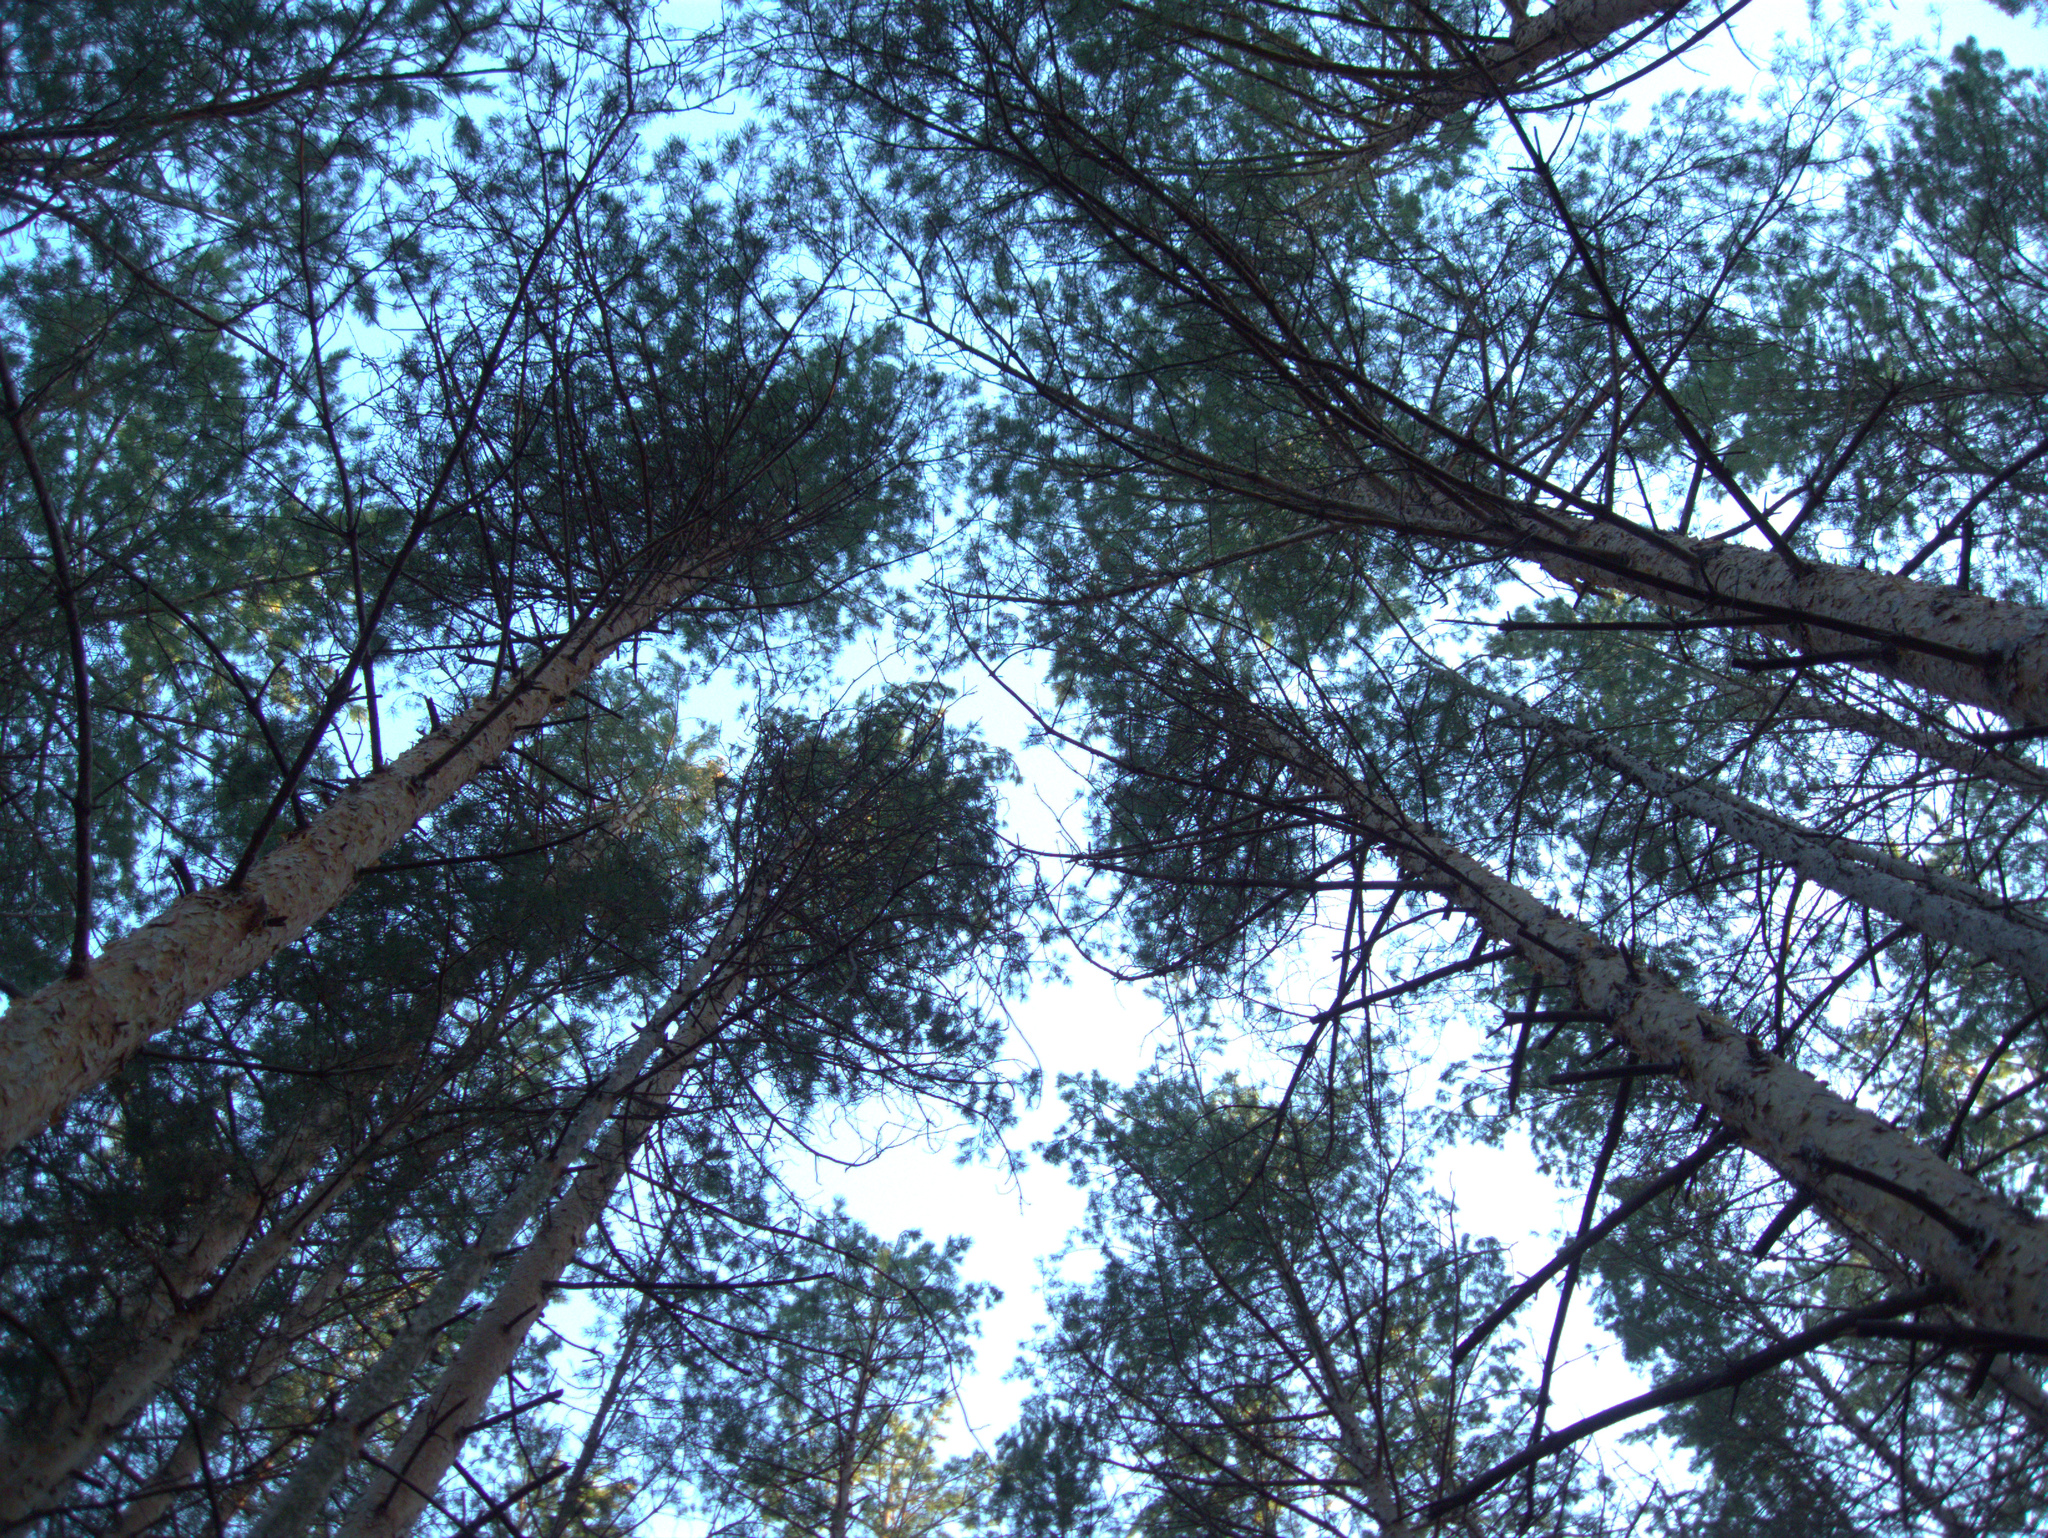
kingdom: Plantae
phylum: Tracheophyta
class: Pinopsida
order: Pinales
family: Pinaceae
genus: Pinus
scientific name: Pinus sylvestris
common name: Scots pine
